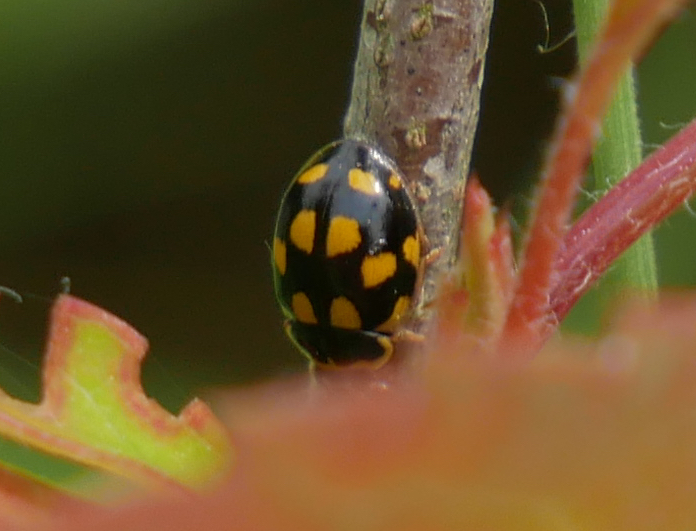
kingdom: Animalia
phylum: Arthropoda
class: Insecta
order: Coleoptera
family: Coccinellidae
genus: Propylaea
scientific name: Propylaea quatuordecimpunctata
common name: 14-spotted ladybird beetle
